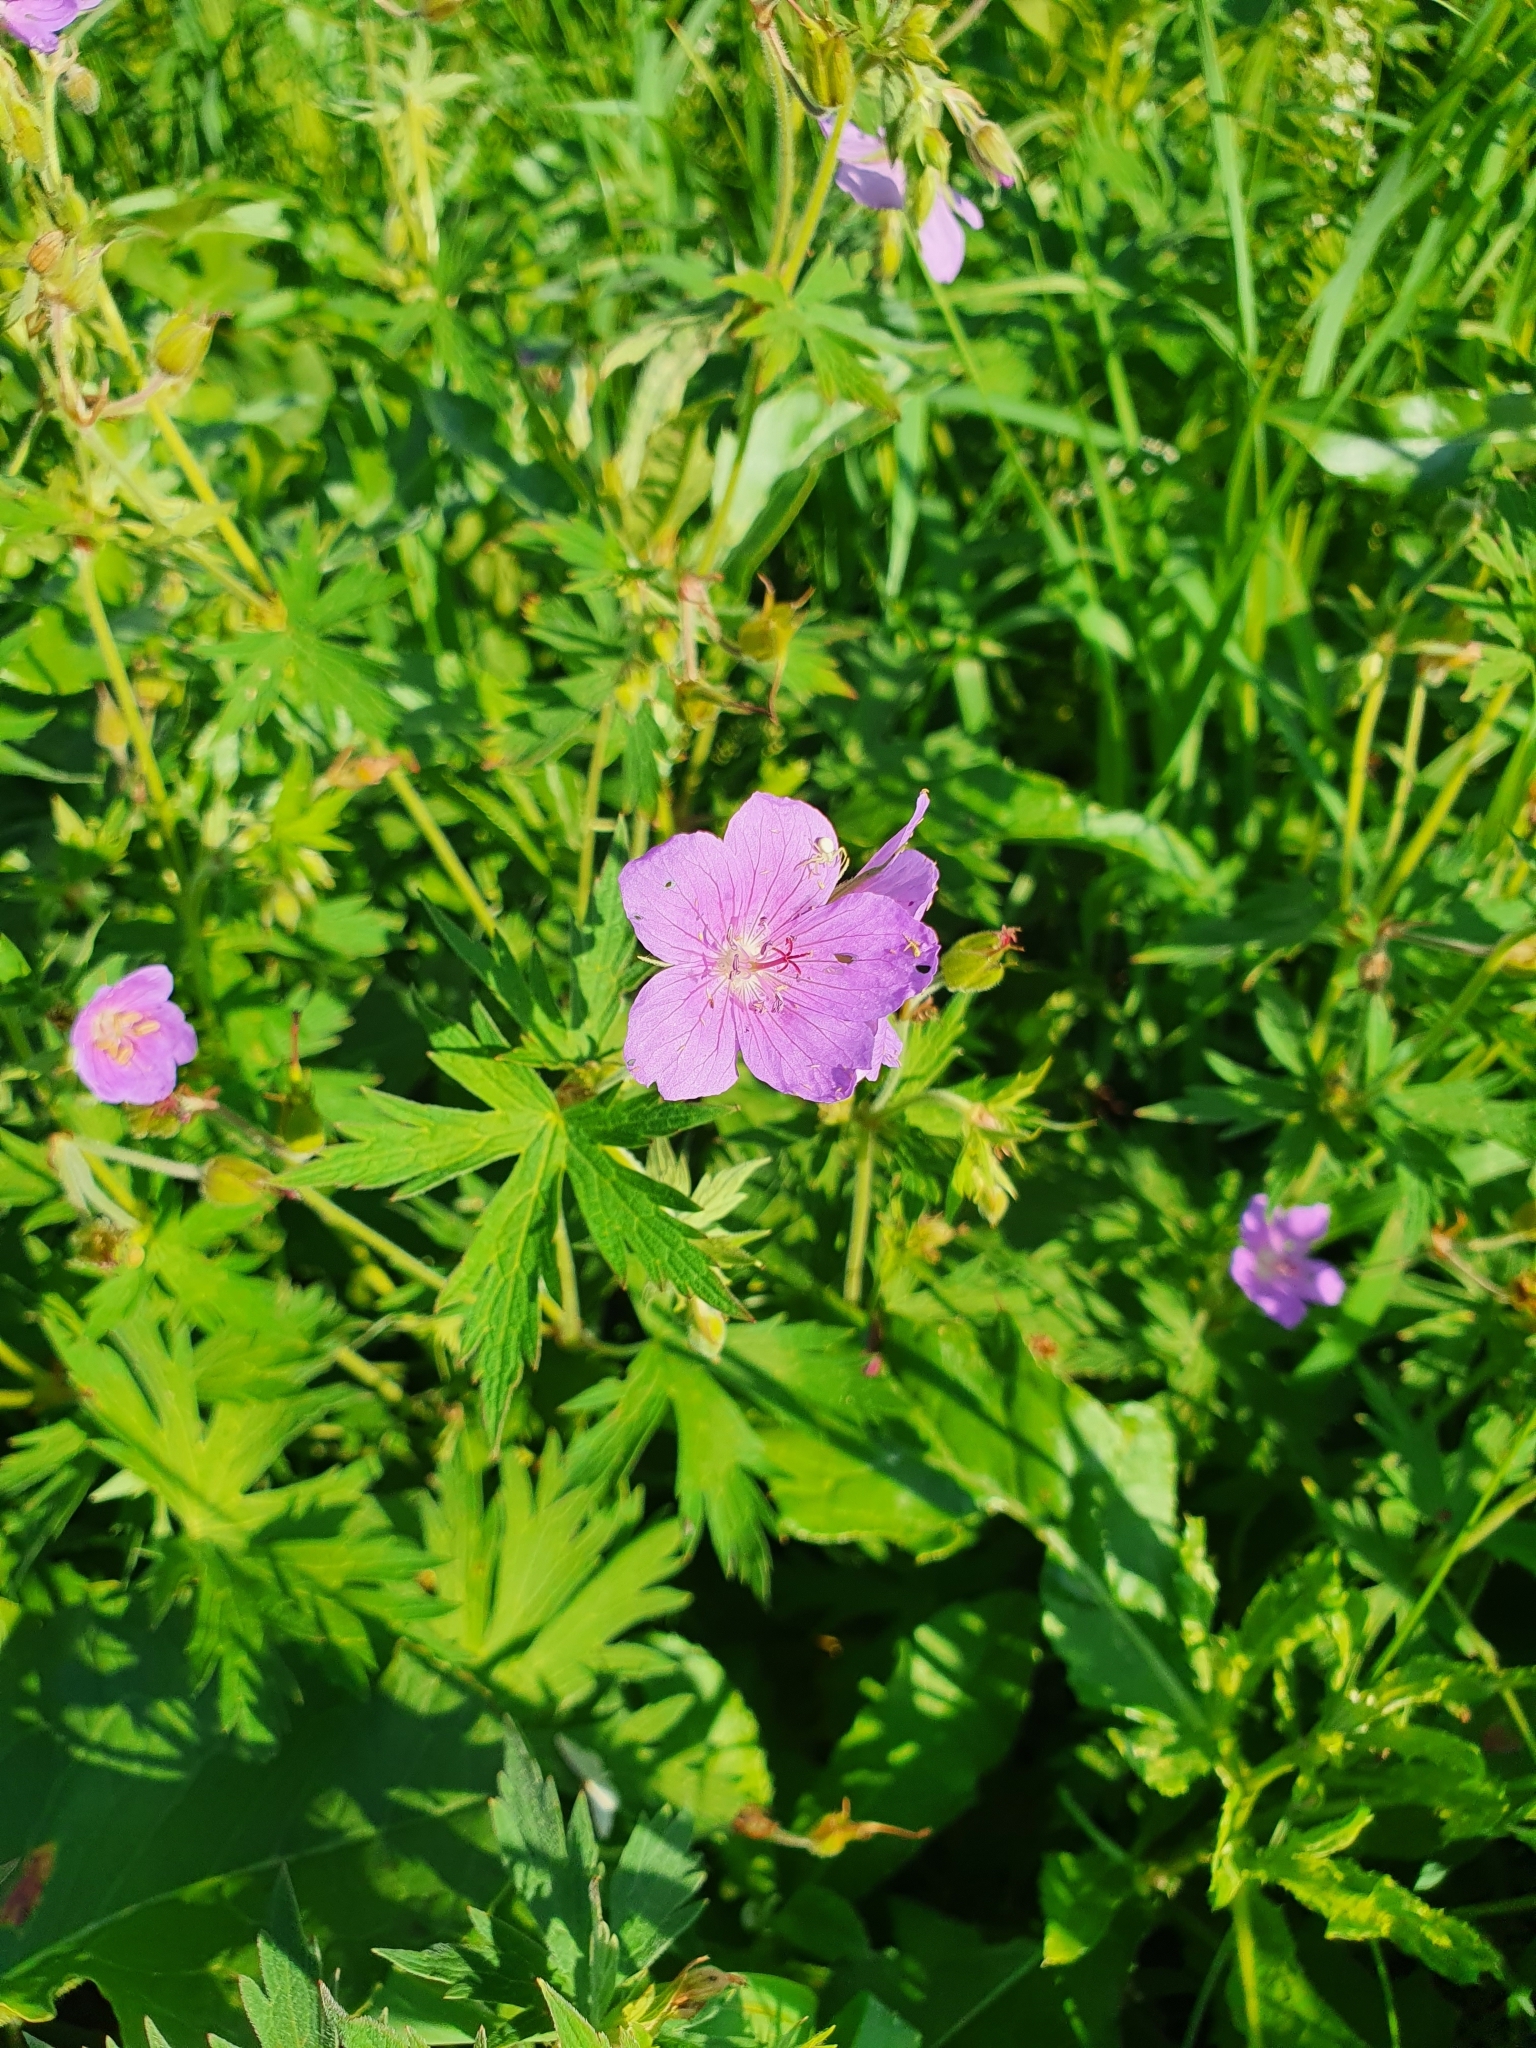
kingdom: Plantae
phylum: Tracheophyta
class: Magnoliopsida
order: Geraniales
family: Geraniaceae
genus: Geranium
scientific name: Geranium pratense
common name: Meadow crane's-bill
